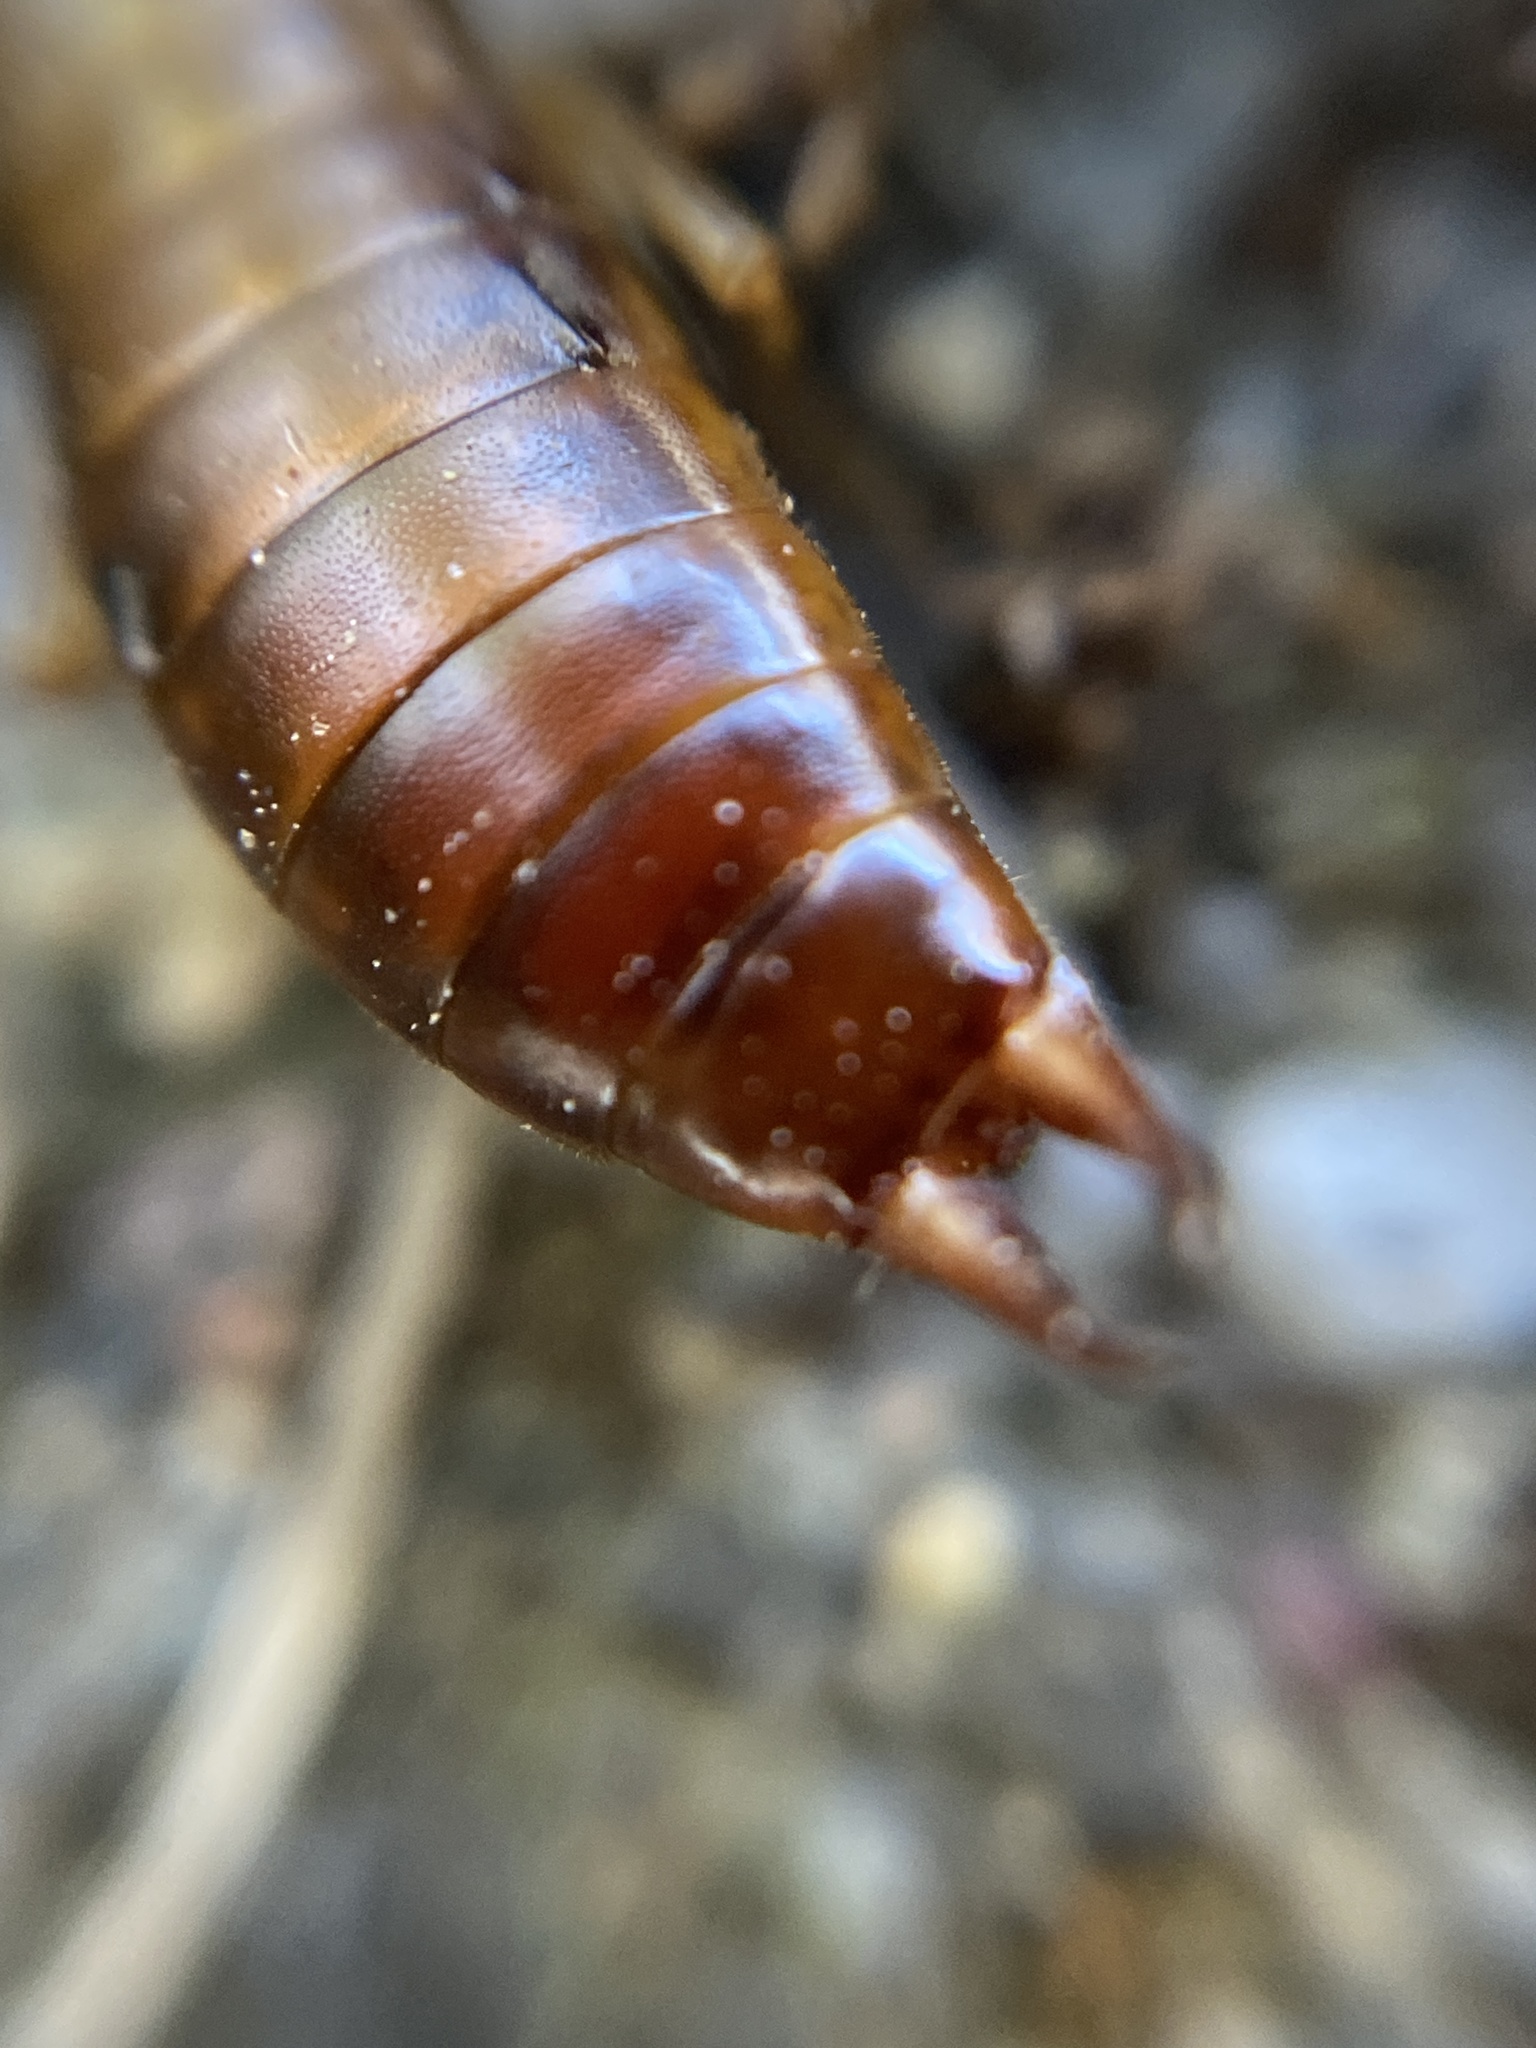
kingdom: Animalia
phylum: Arthropoda
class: Insecta
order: Dermaptera
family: Forficulidae
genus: Chelidurella
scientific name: Chelidurella acanthopygia
